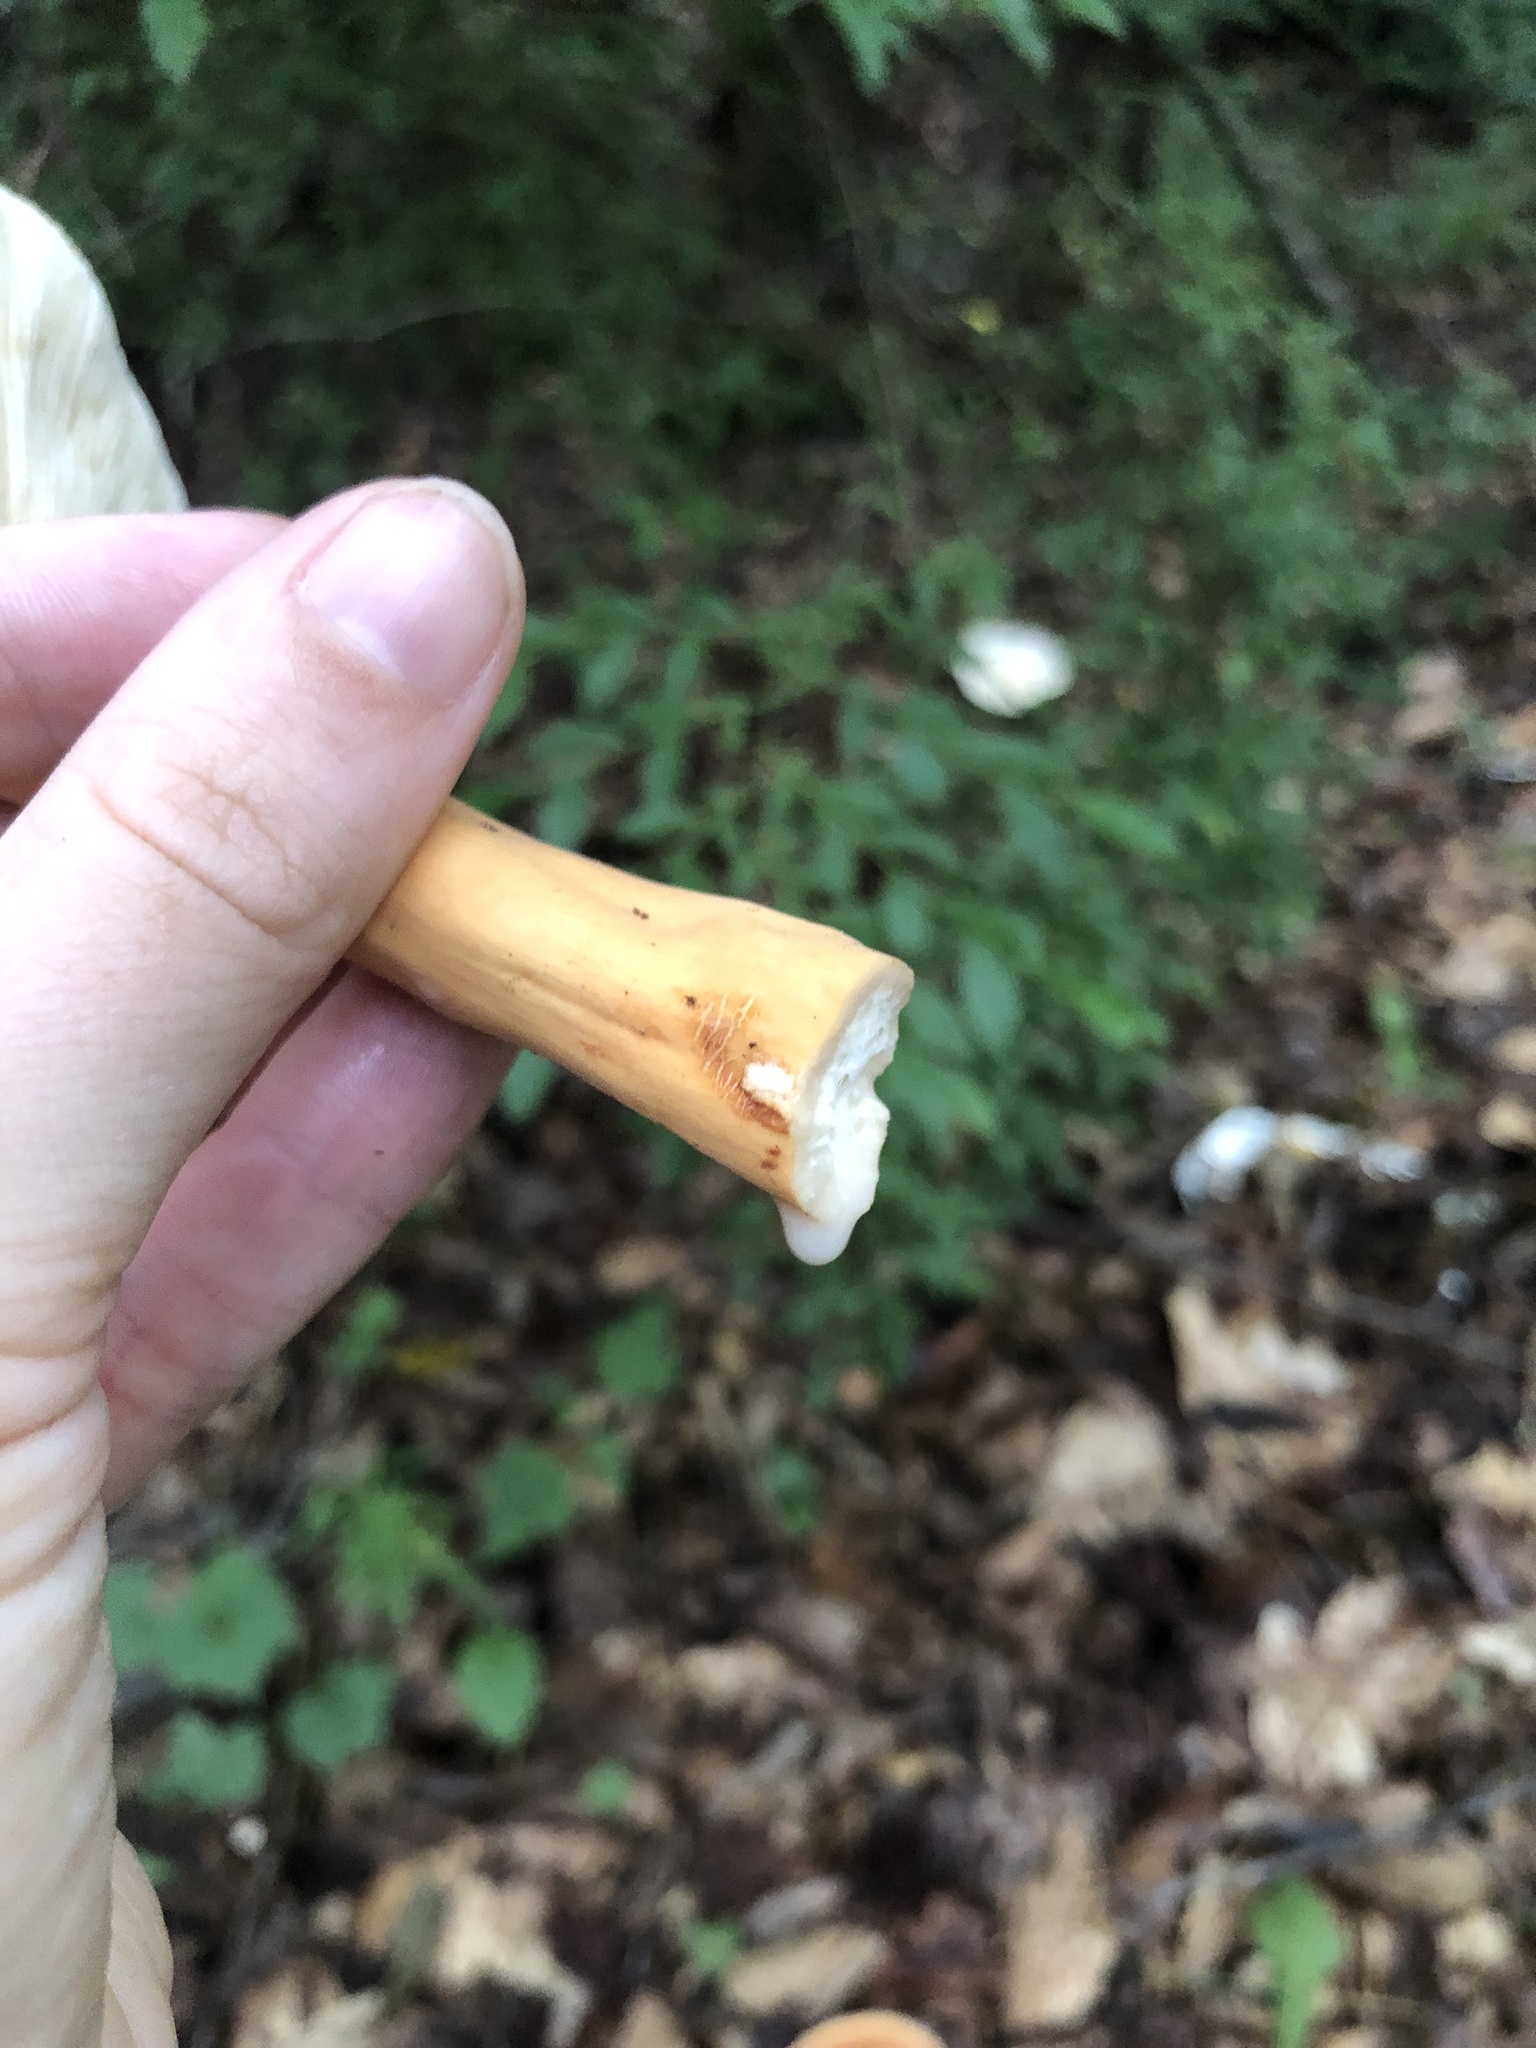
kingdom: Fungi
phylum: Basidiomycota
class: Agaricomycetes
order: Russulales
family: Russulaceae
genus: Lactarius
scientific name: Lactarius hygrophoroides
